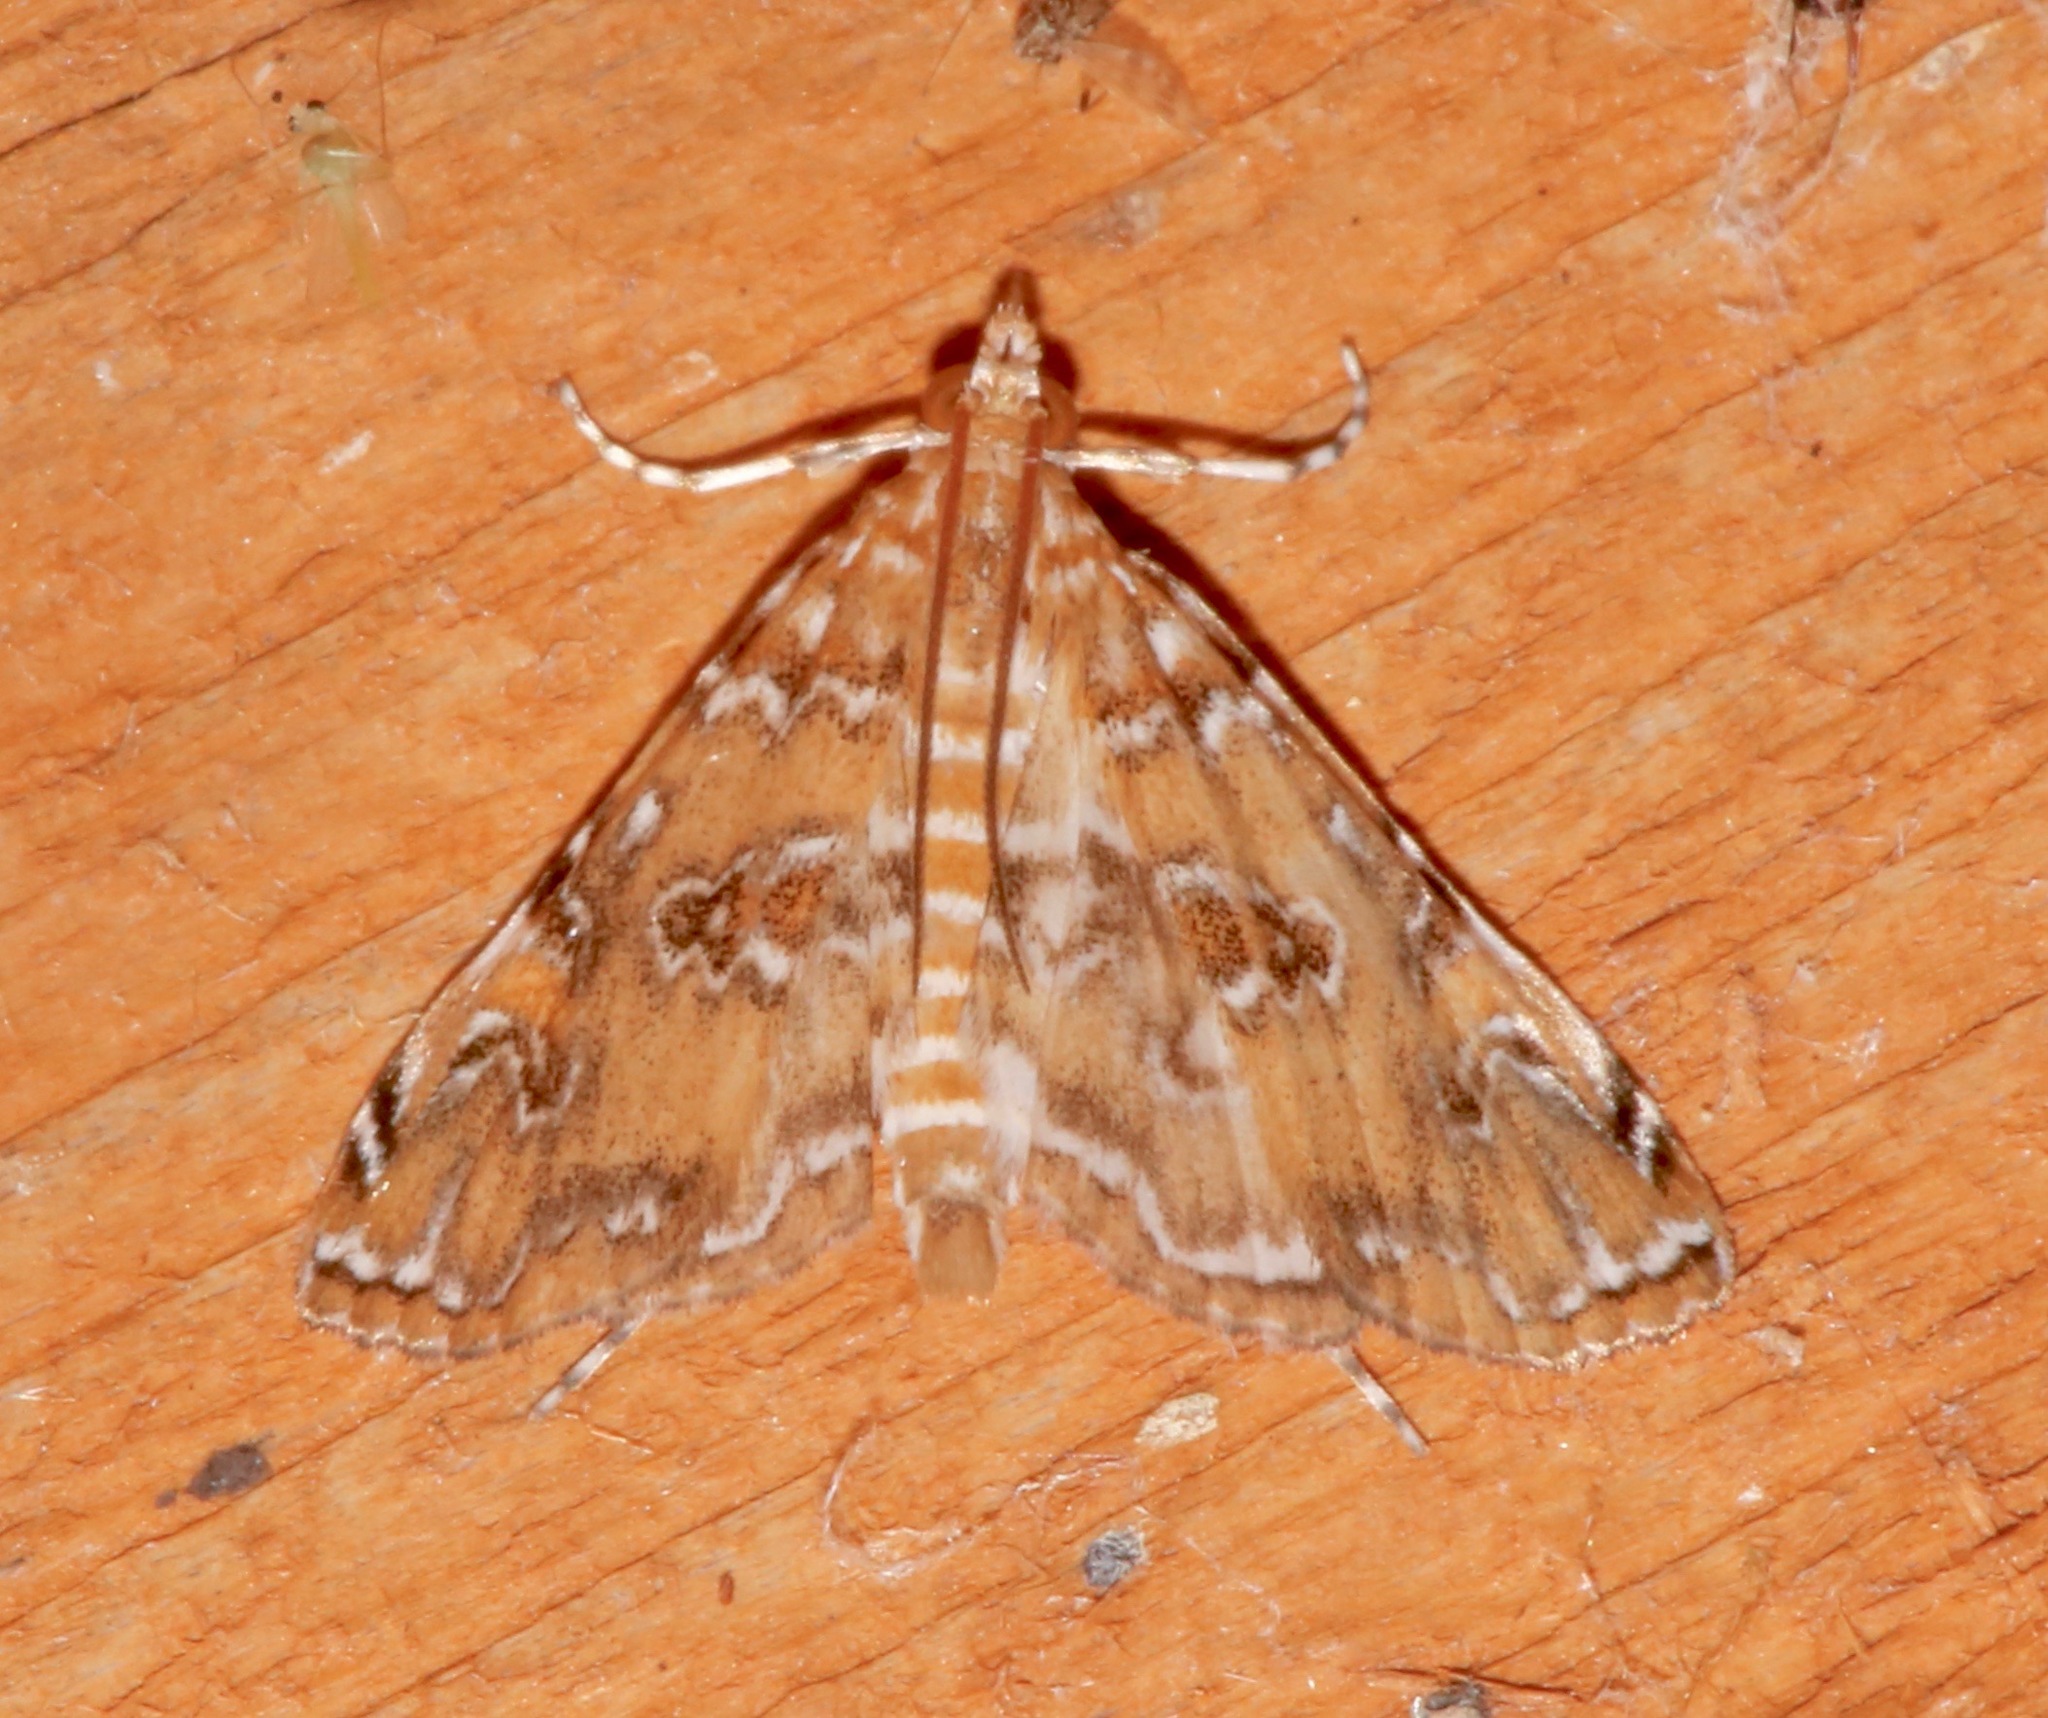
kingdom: Animalia
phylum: Arthropoda
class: Insecta
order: Lepidoptera
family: Crambidae
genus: Elophila
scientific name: Elophila gyralis
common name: Waterlily borer moth
